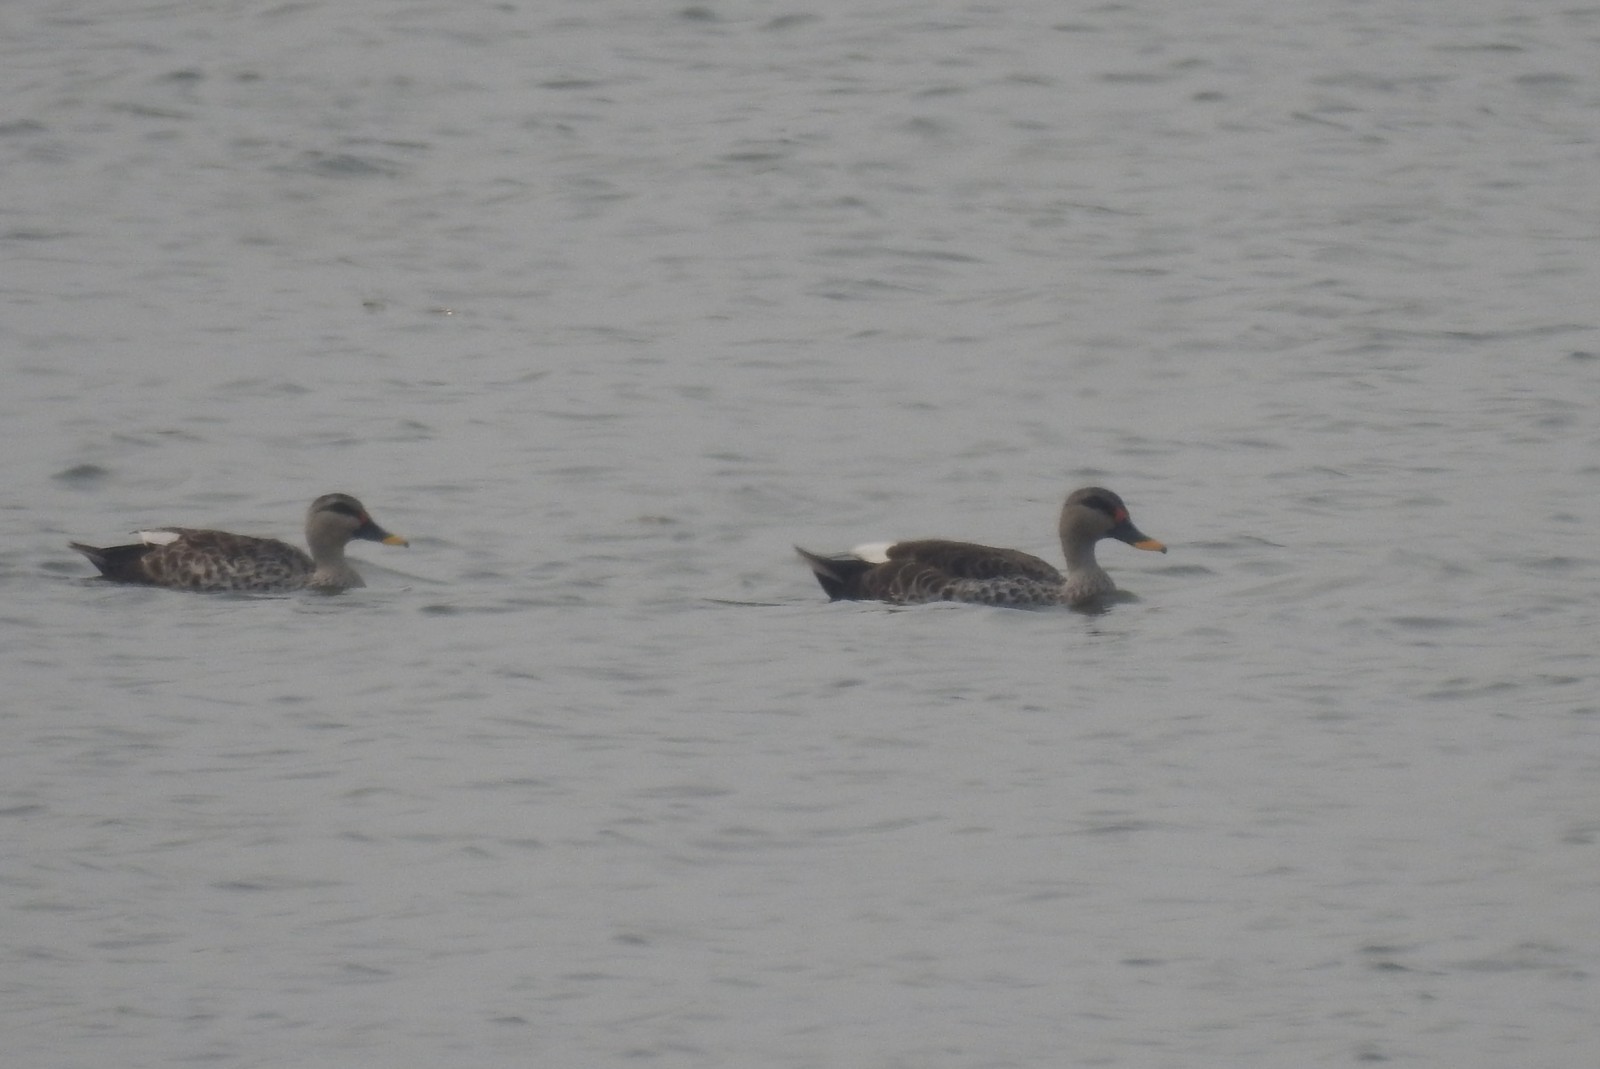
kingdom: Animalia
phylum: Chordata
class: Aves
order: Anseriformes
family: Anatidae
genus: Anas
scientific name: Anas poecilorhyncha
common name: Indian spot-billed duck
